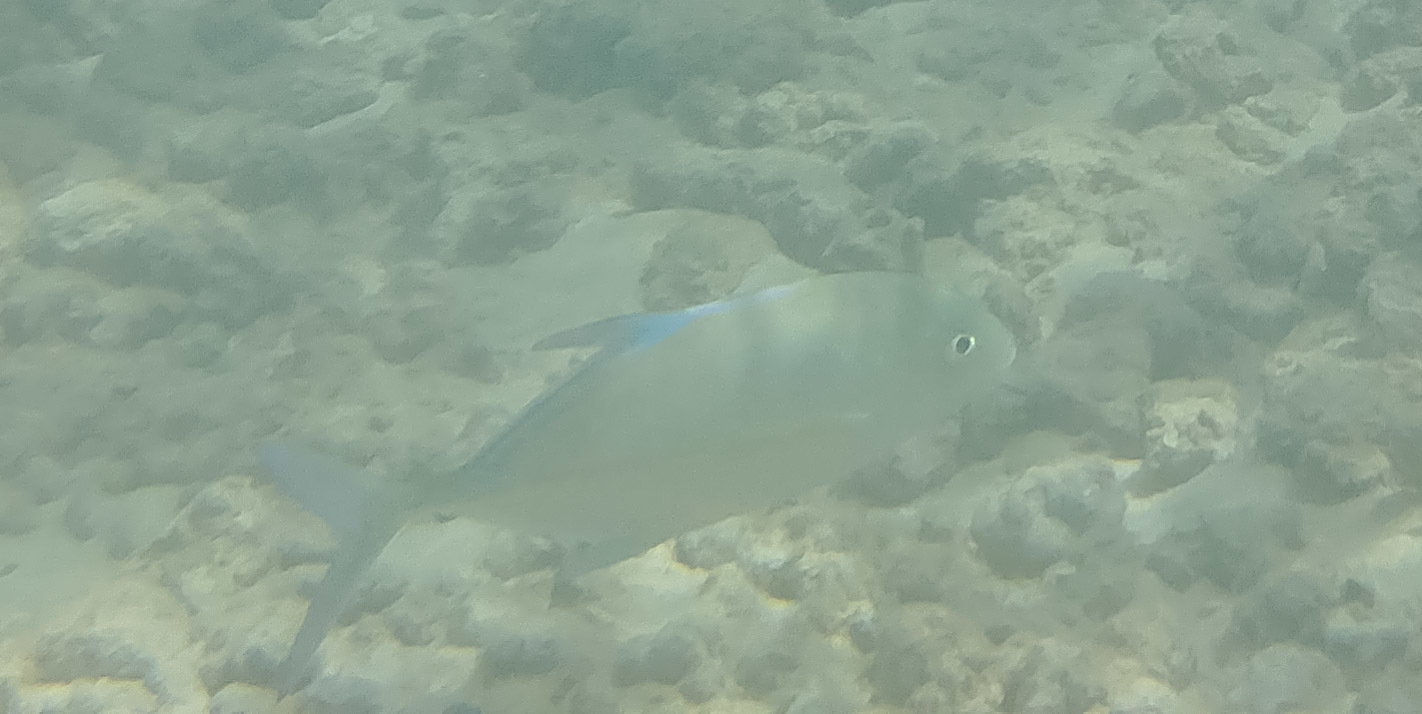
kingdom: Animalia
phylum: Chordata
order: Perciformes
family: Carangidae
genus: Caranx
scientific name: Caranx melampygus
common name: Bluefin trevally
